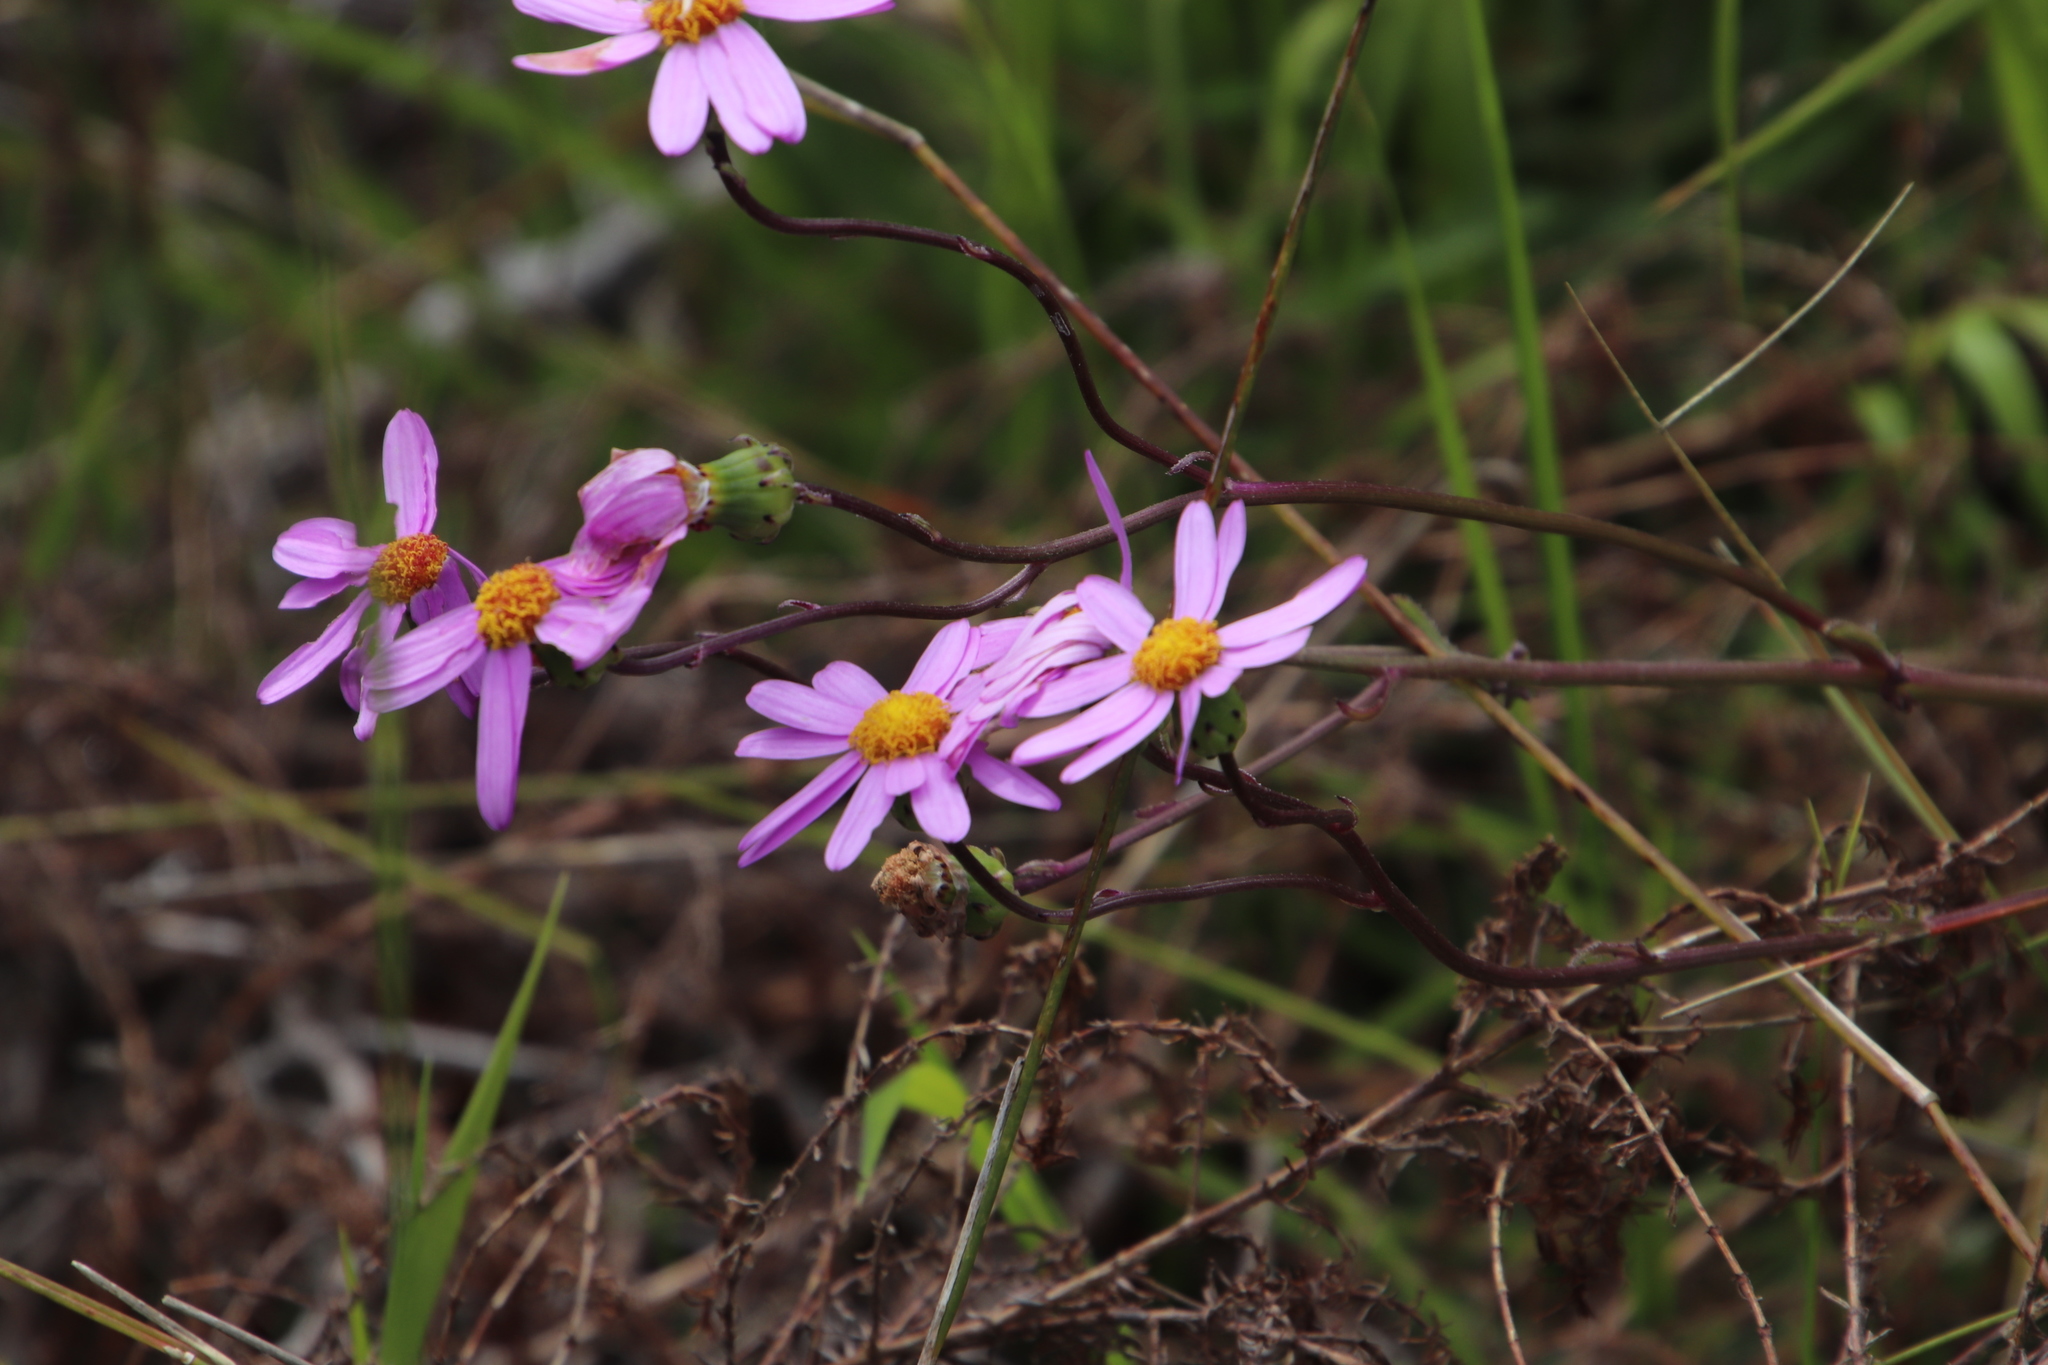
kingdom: Plantae
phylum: Tracheophyta
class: Magnoliopsida
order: Asterales
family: Asteraceae
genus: Senecio
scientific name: Senecio elegans
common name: Purple groundsel
